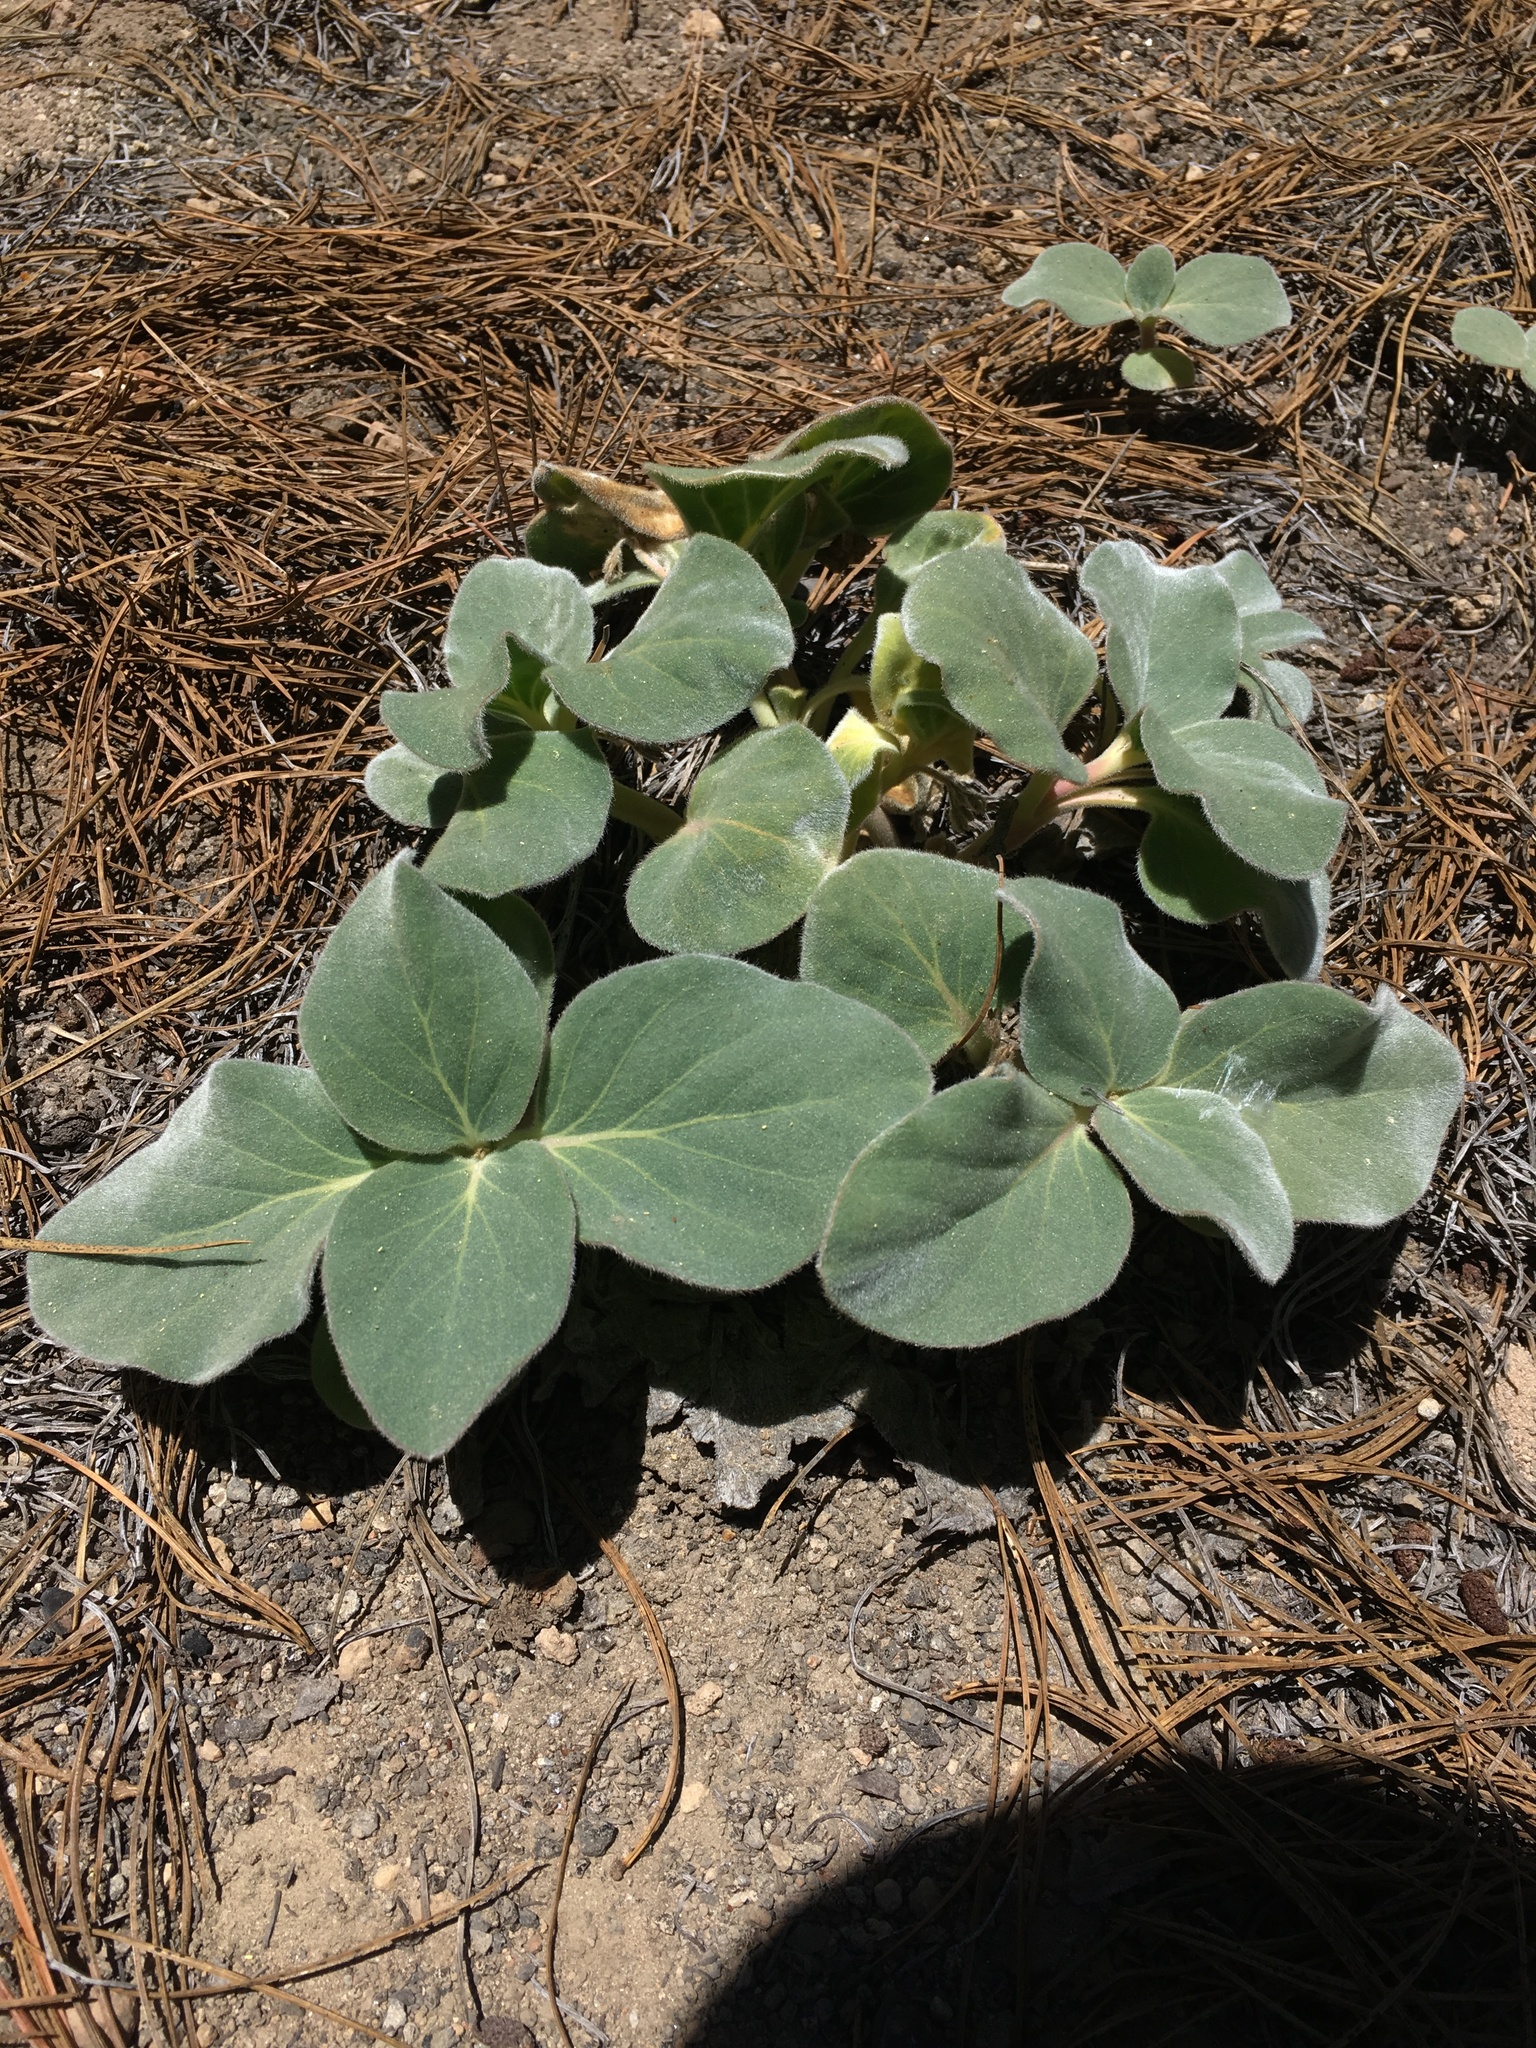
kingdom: Plantae
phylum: Tracheophyta
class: Magnoliopsida
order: Gentianales
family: Apocynaceae
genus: Cycladenia
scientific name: Cycladenia humilis
